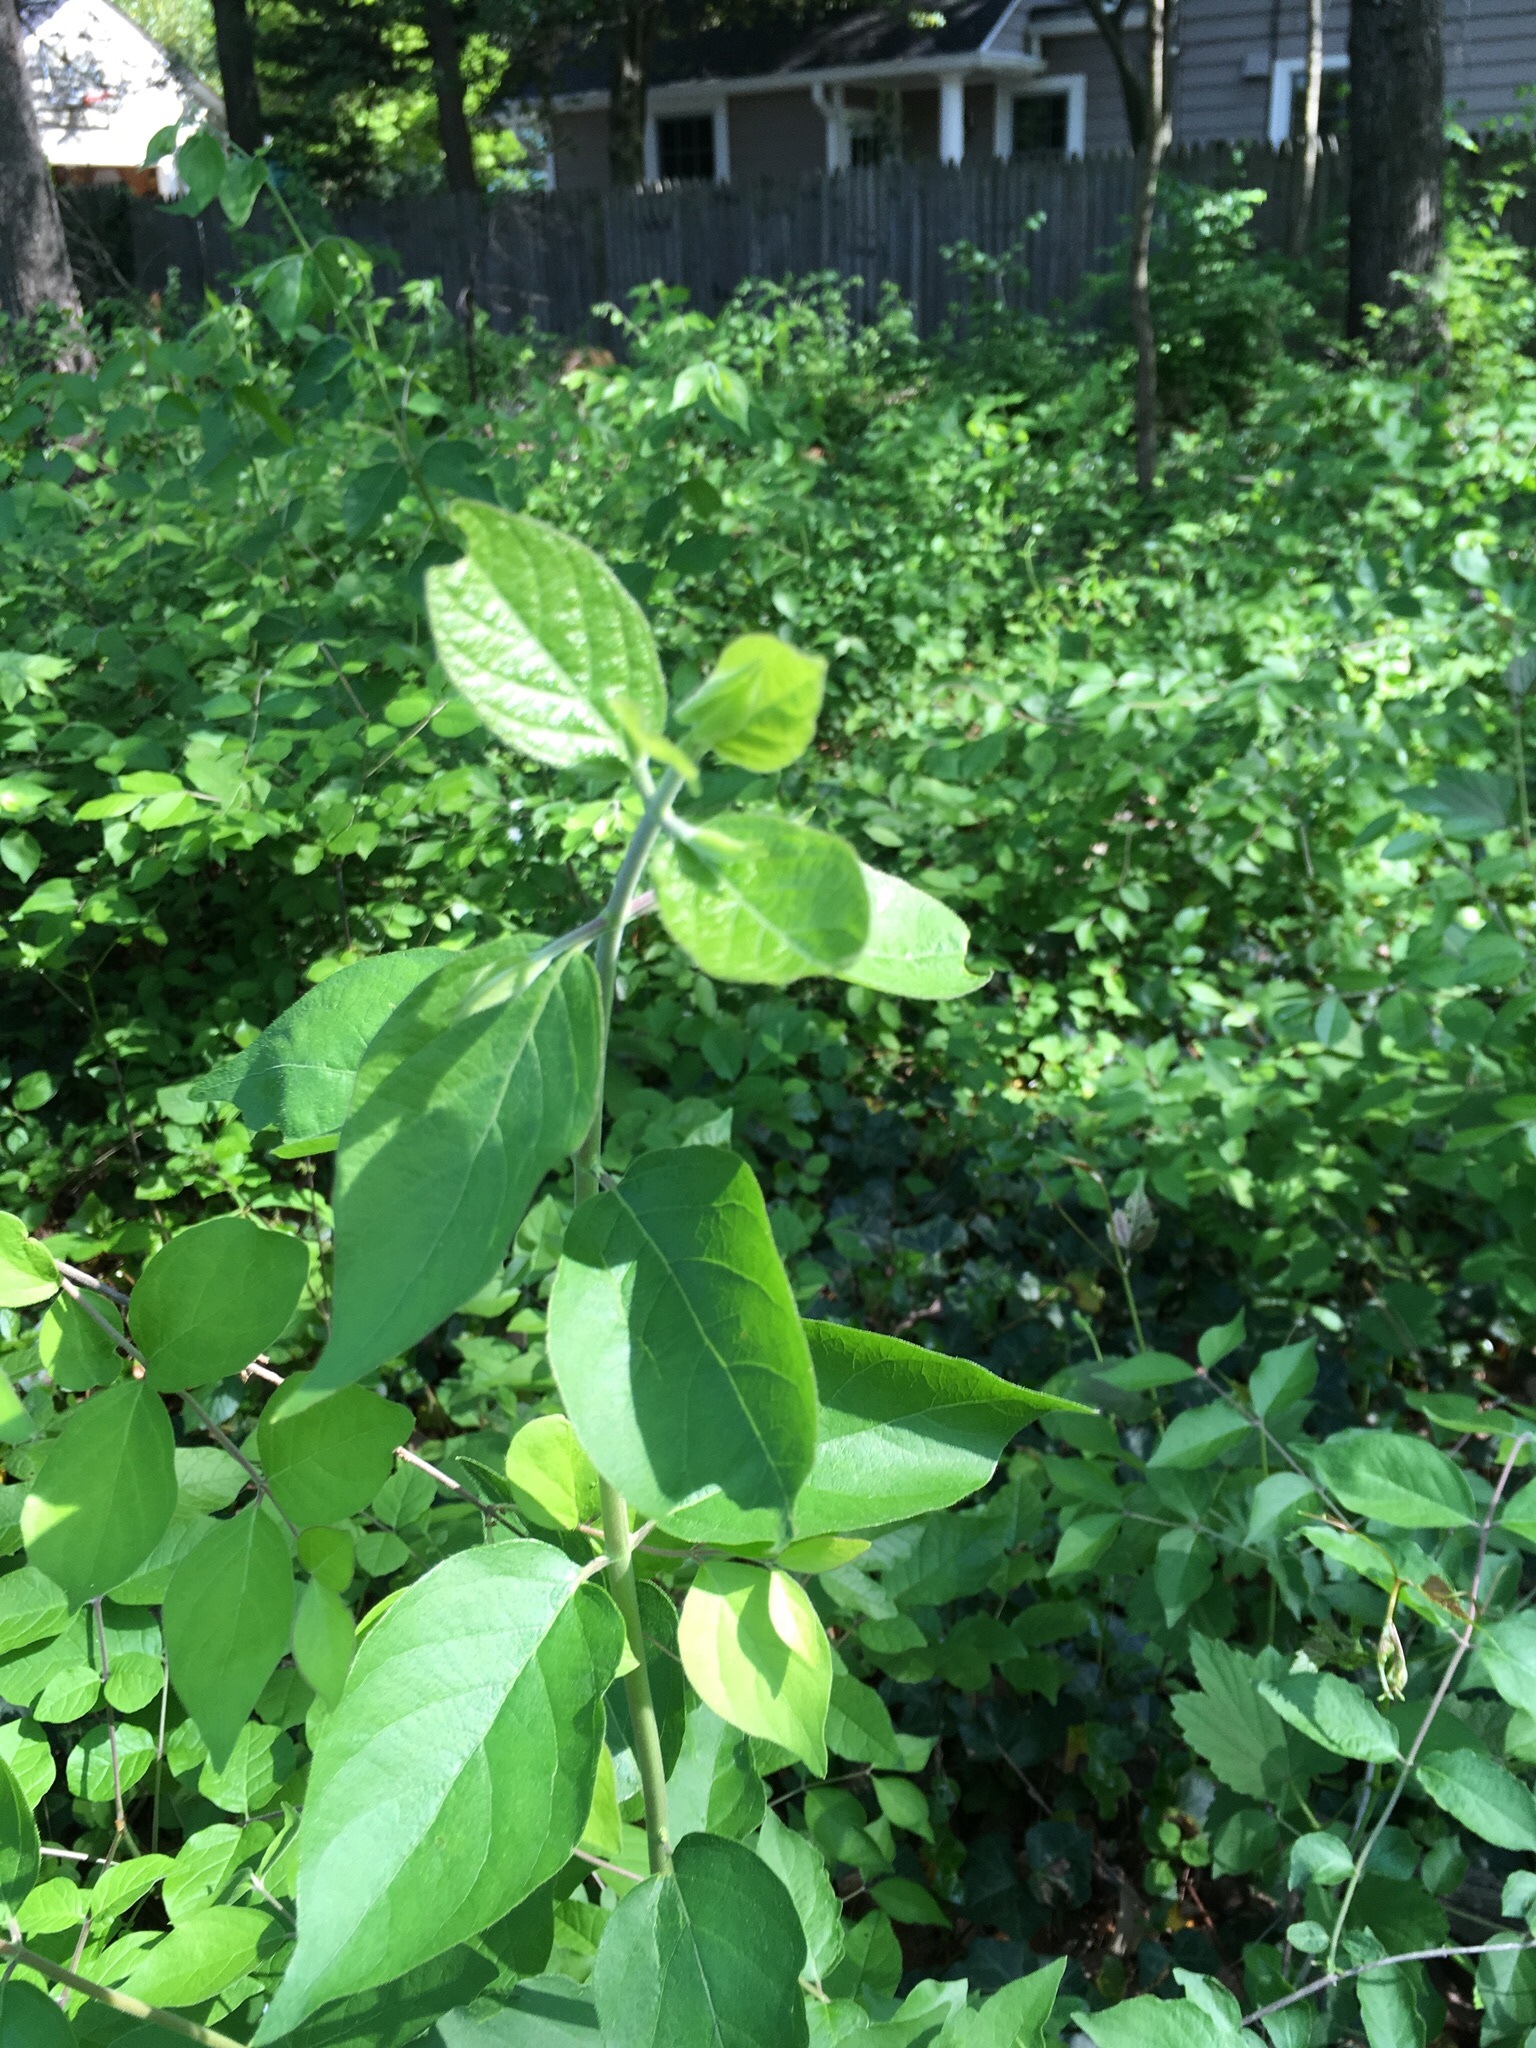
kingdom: Plantae
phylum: Tracheophyta
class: Magnoliopsida
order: Dipsacales
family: Caprifoliaceae
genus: Lonicera
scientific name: Lonicera maackii
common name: Amur honeysuckle
